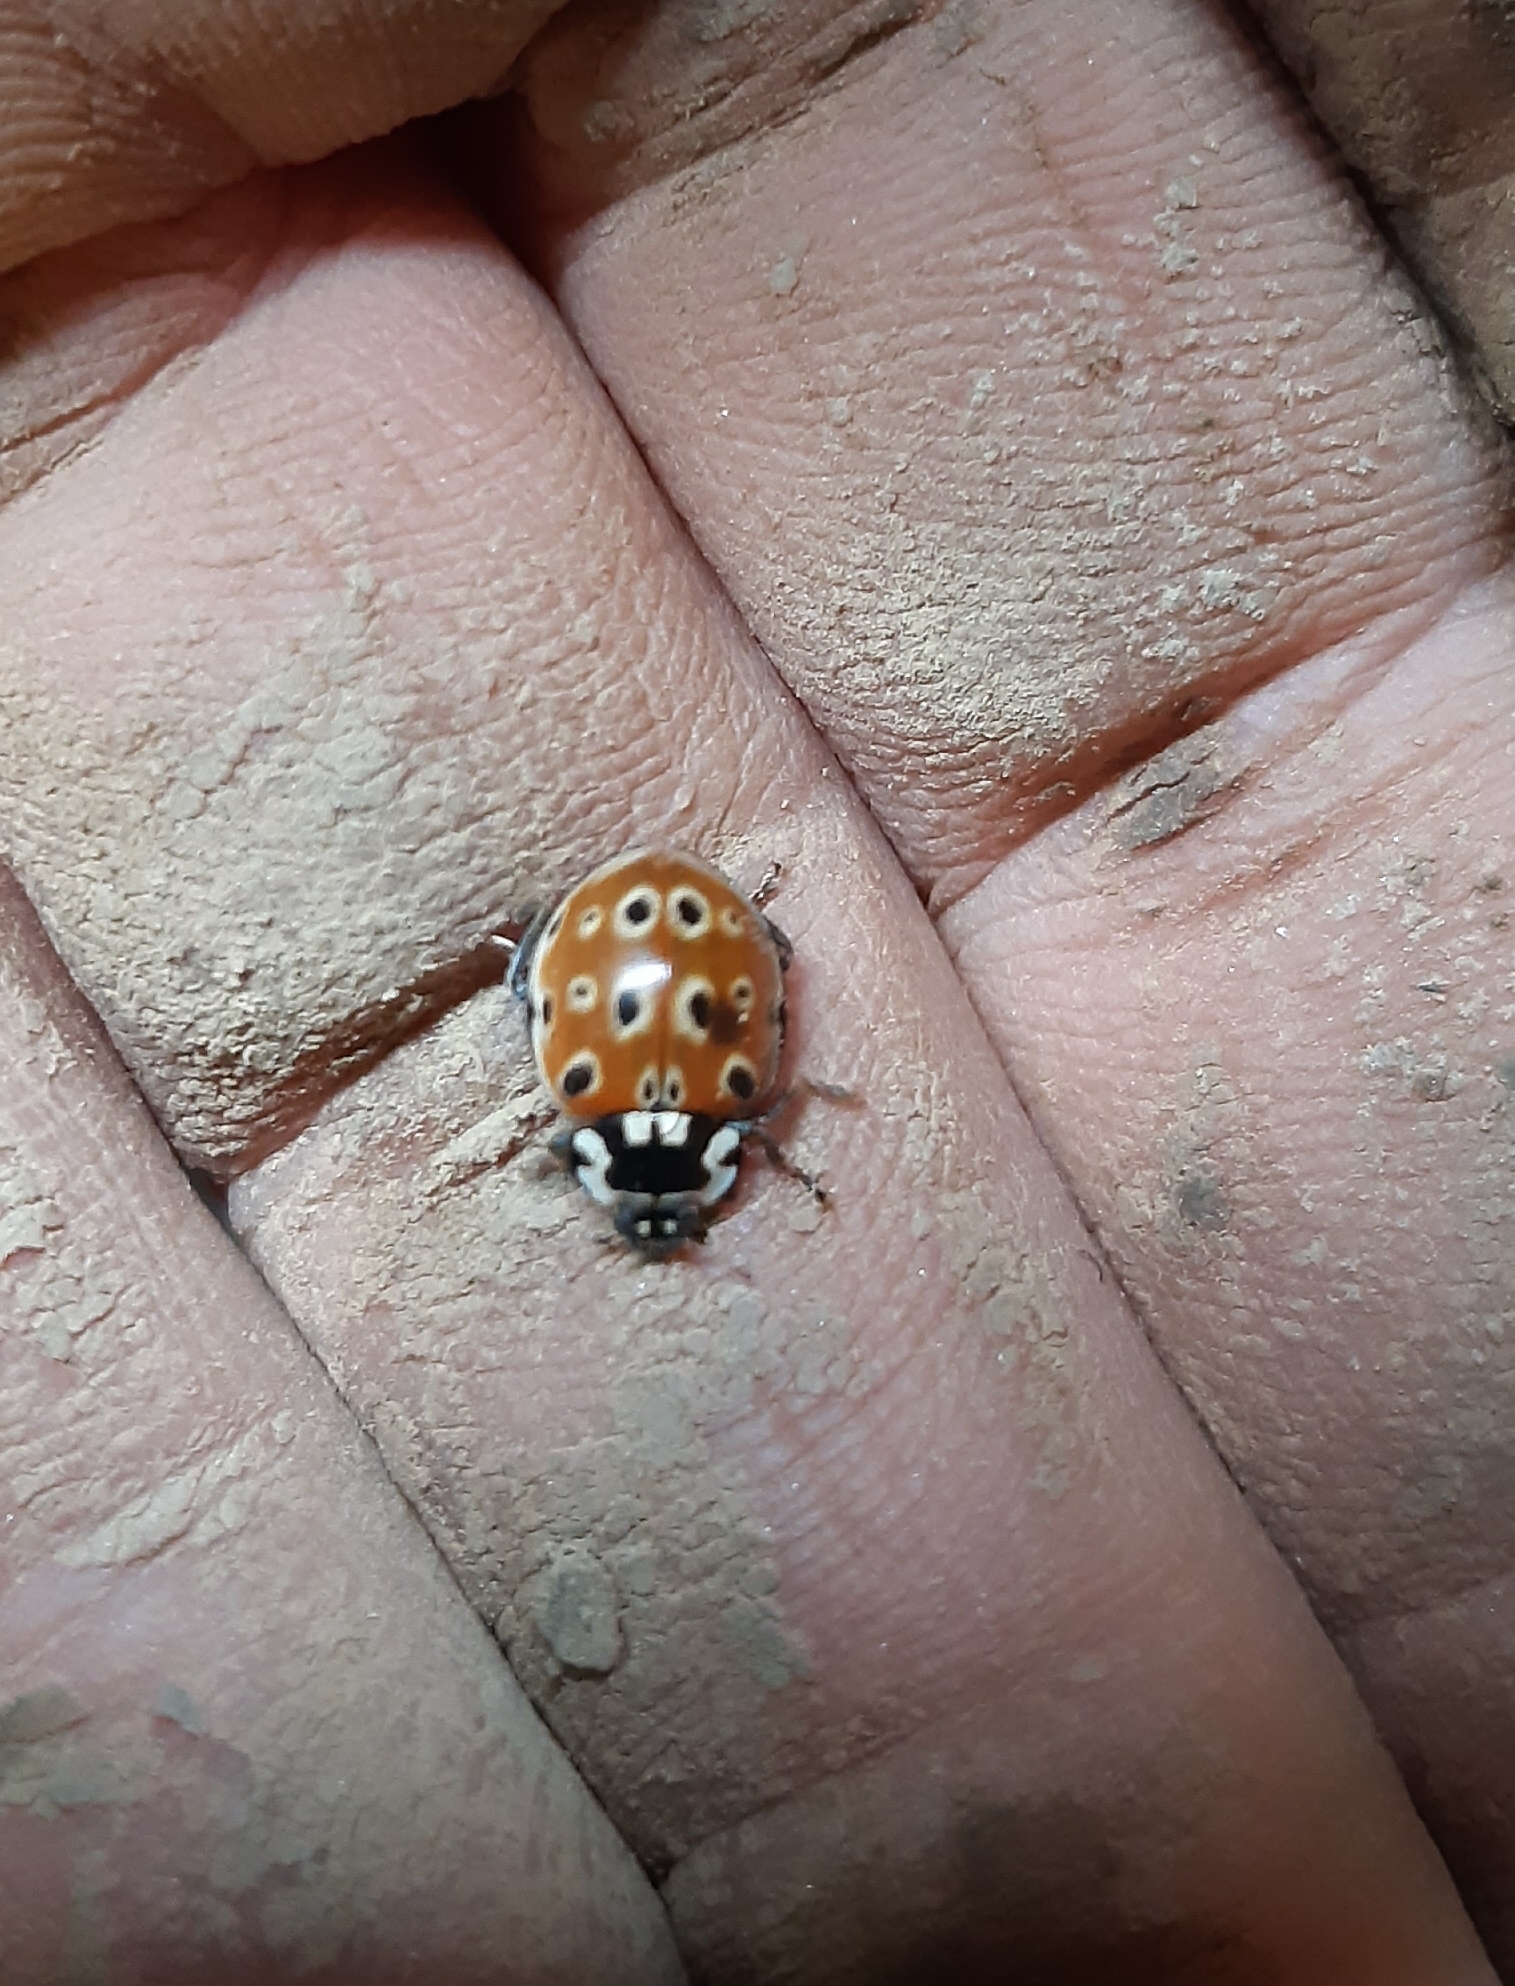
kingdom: Animalia
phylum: Arthropoda
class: Insecta
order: Coleoptera
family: Coccinellidae
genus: Anatis
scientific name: Anatis ocellata
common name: Eyed ladybird
